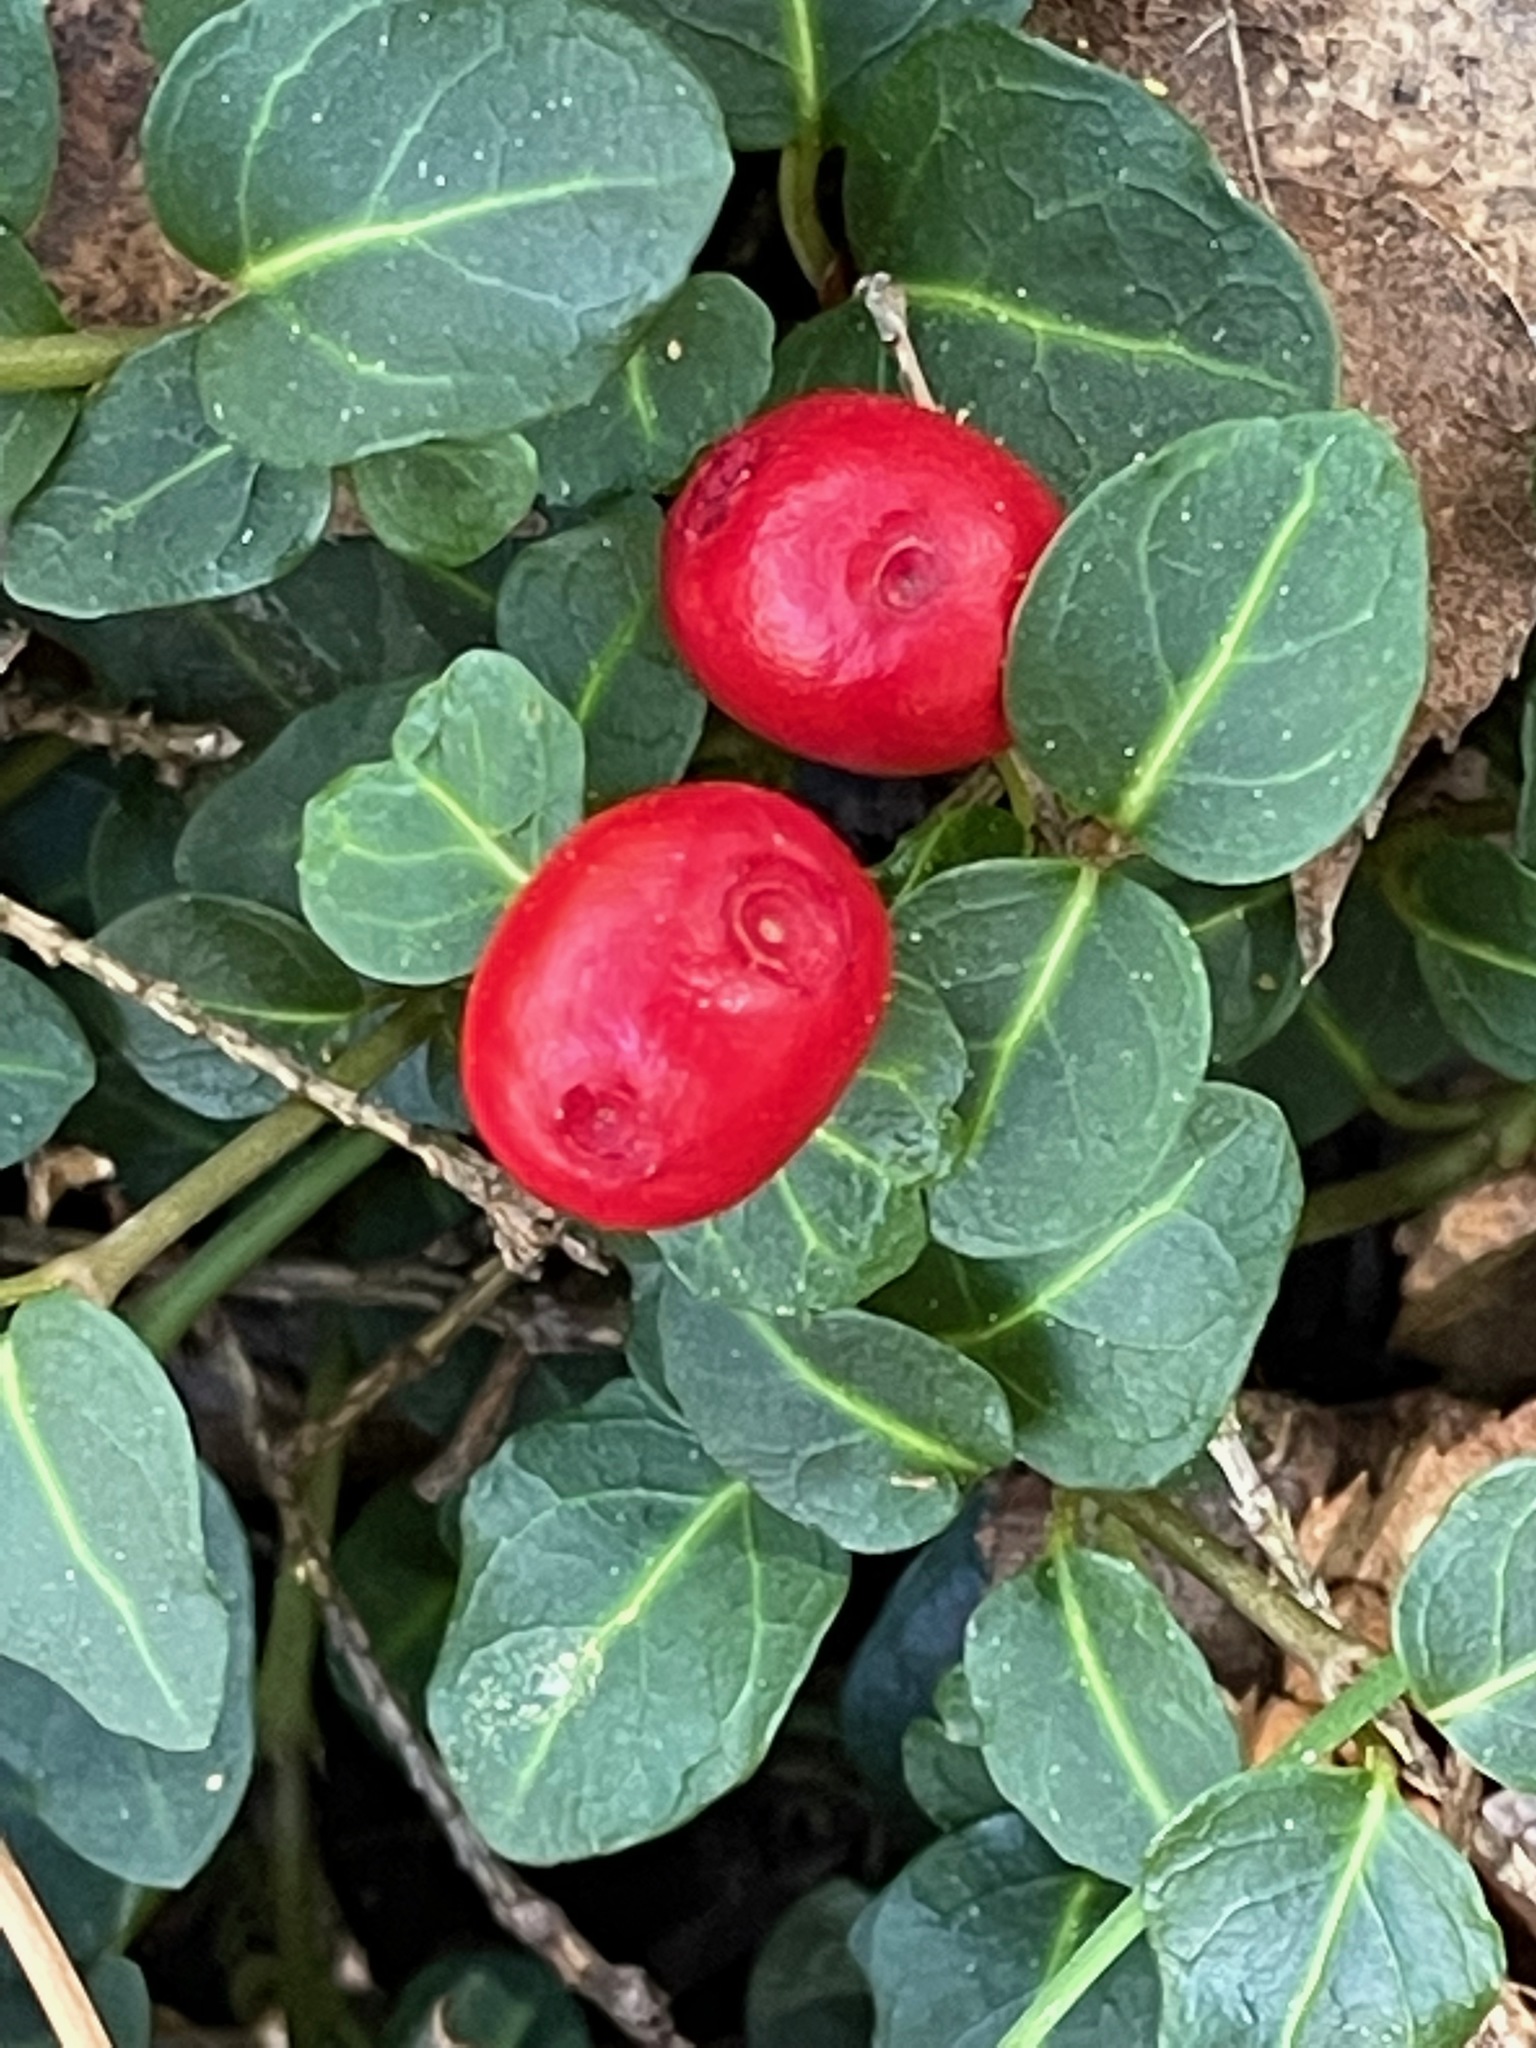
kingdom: Plantae
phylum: Tracheophyta
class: Magnoliopsida
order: Gentianales
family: Rubiaceae
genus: Mitchella
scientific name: Mitchella repens
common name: Partridge-berry
